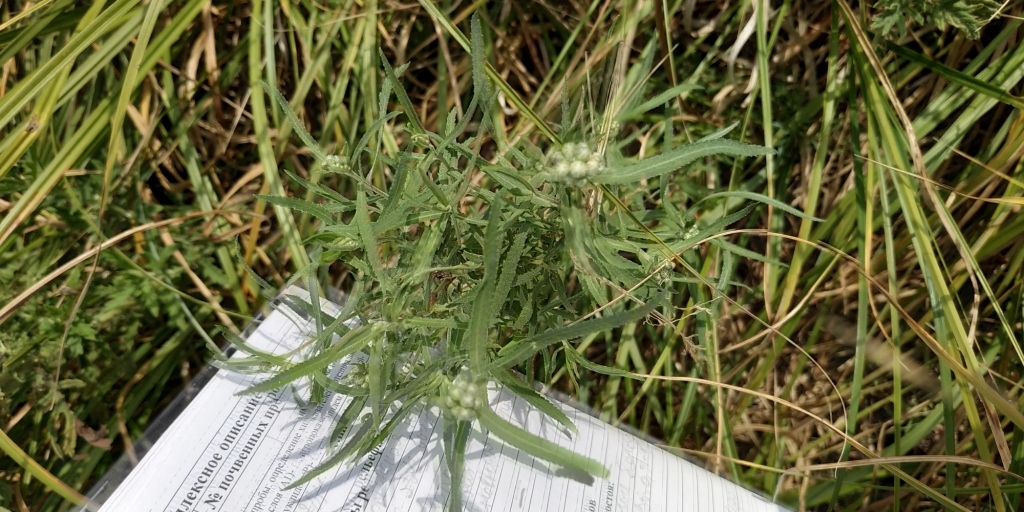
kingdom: Plantae
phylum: Tracheophyta
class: Magnoliopsida
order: Asterales
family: Asteraceae
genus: Achillea
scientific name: Achillea salicifolia
